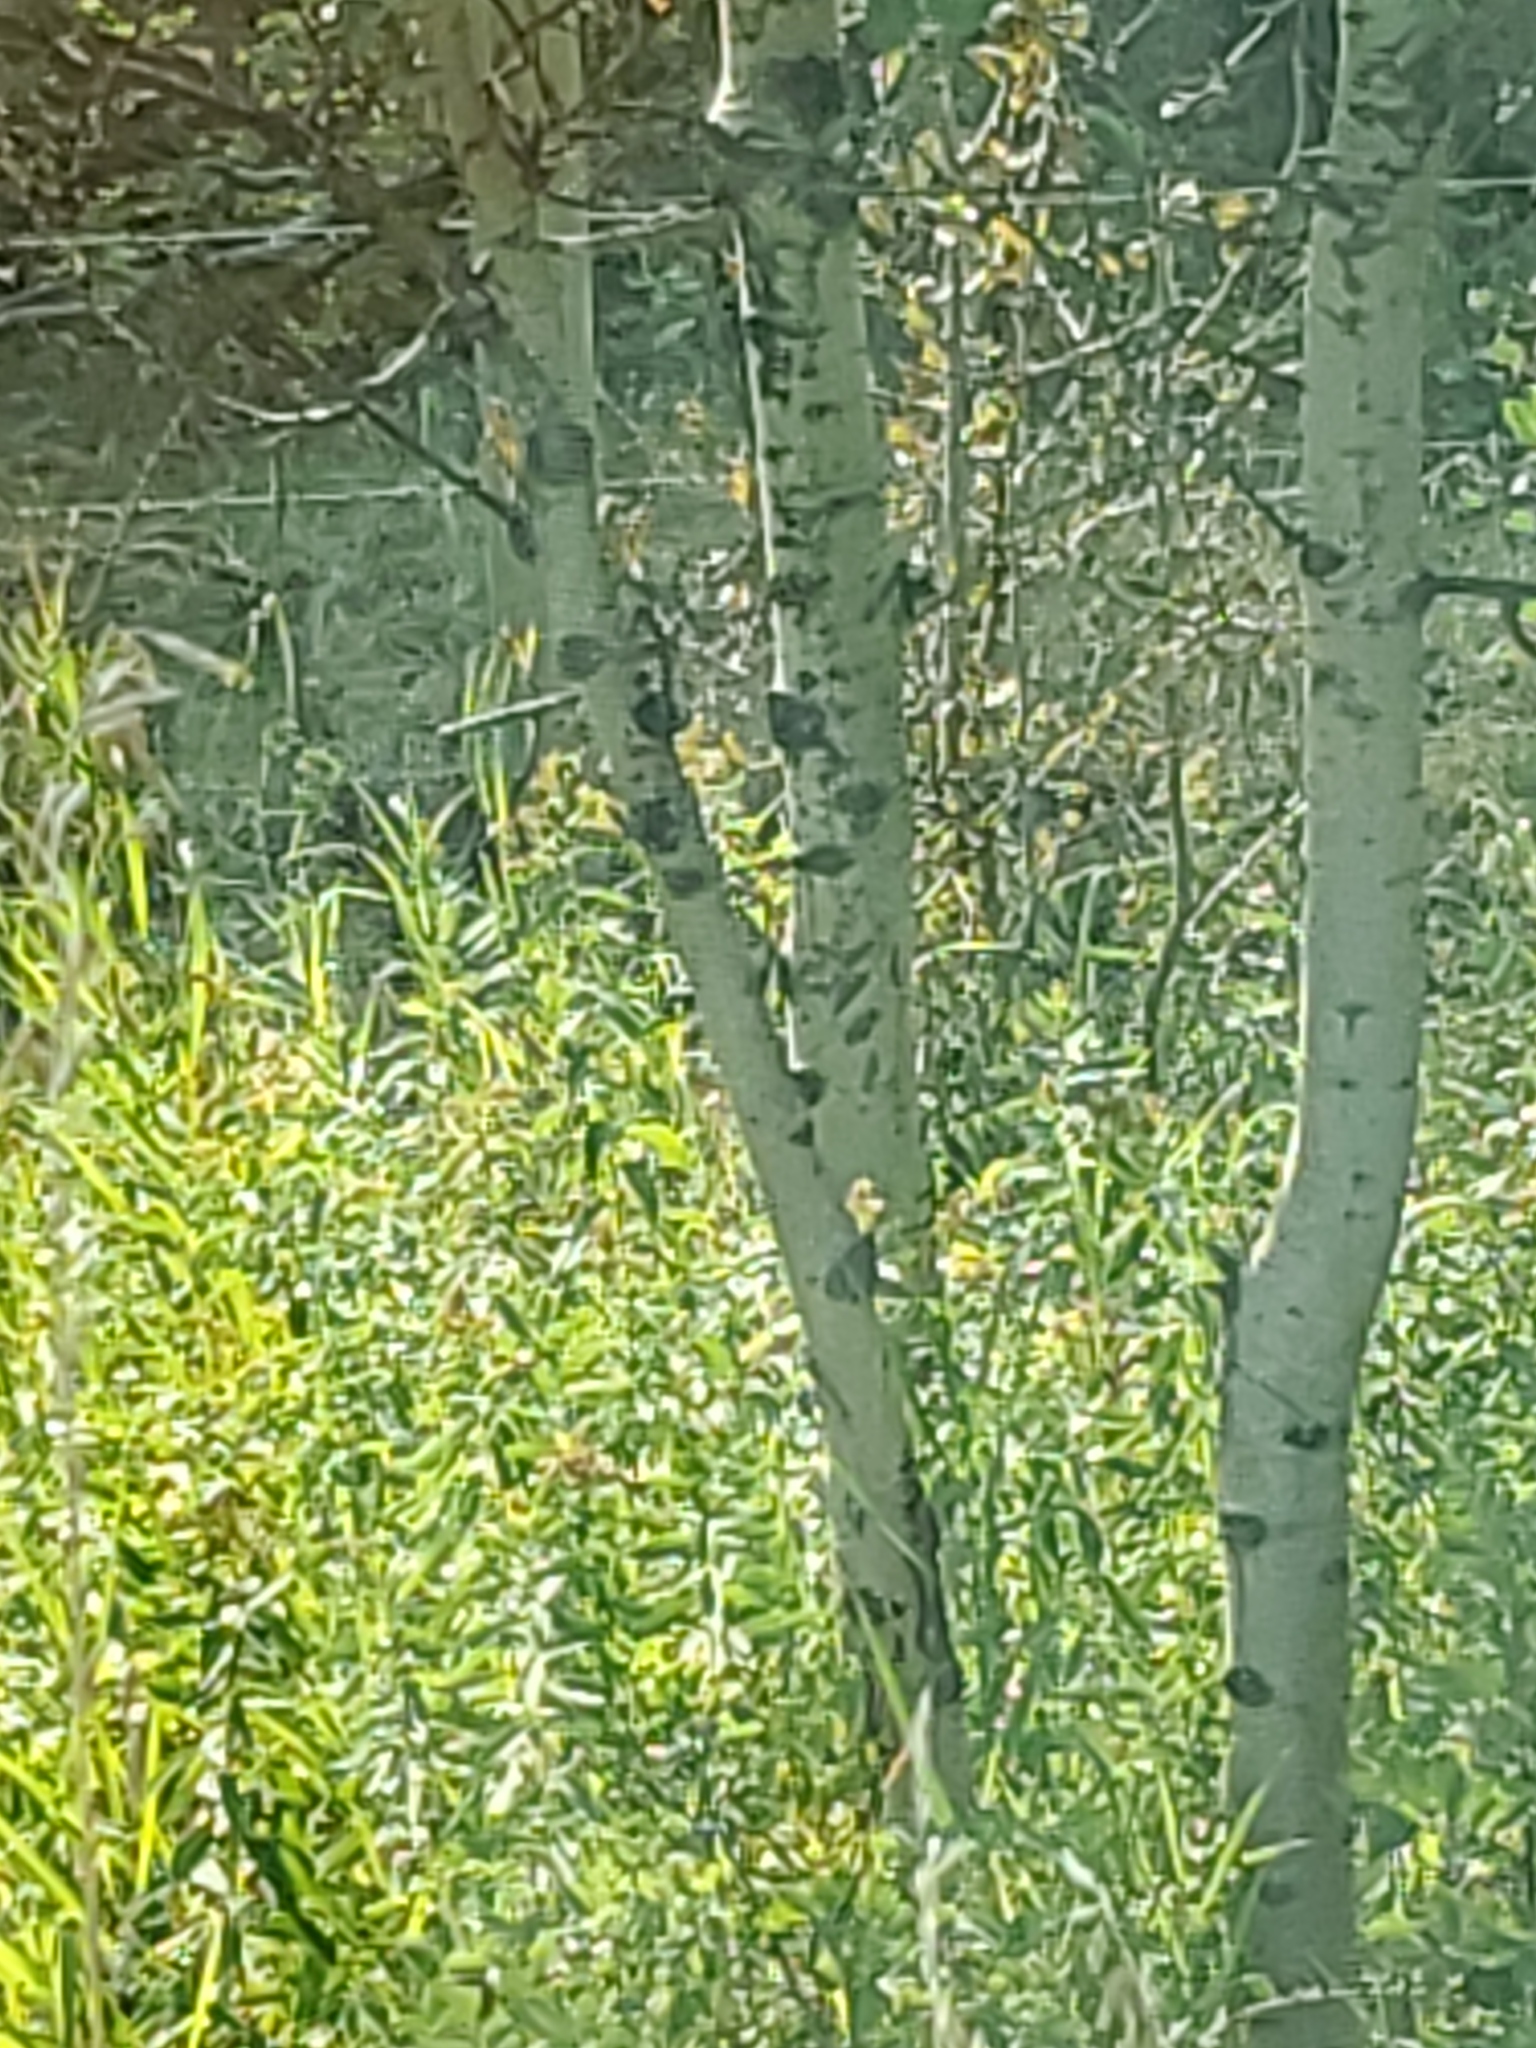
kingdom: Plantae
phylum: Tracheophyta
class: Magnoliopsida
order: Malpighiales
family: Salicaceae
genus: Populus
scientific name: Populus tremuloides
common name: Quaking aspen
